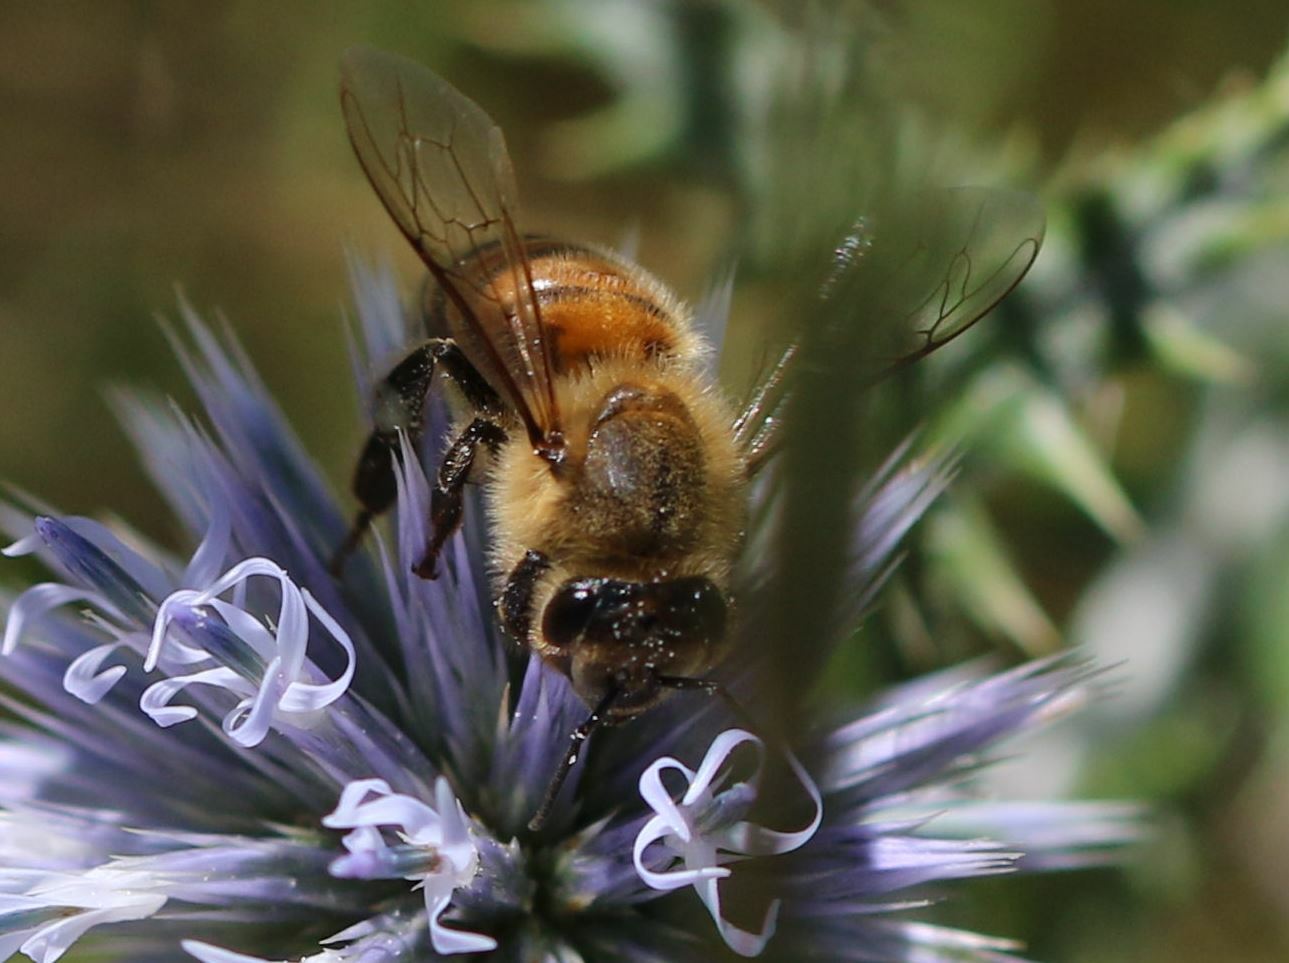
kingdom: Animalia
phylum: Arthropoda
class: Insecta
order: Hymenoptera
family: Apidae
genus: Apis
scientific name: Apis mellifera
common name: Honey bee
